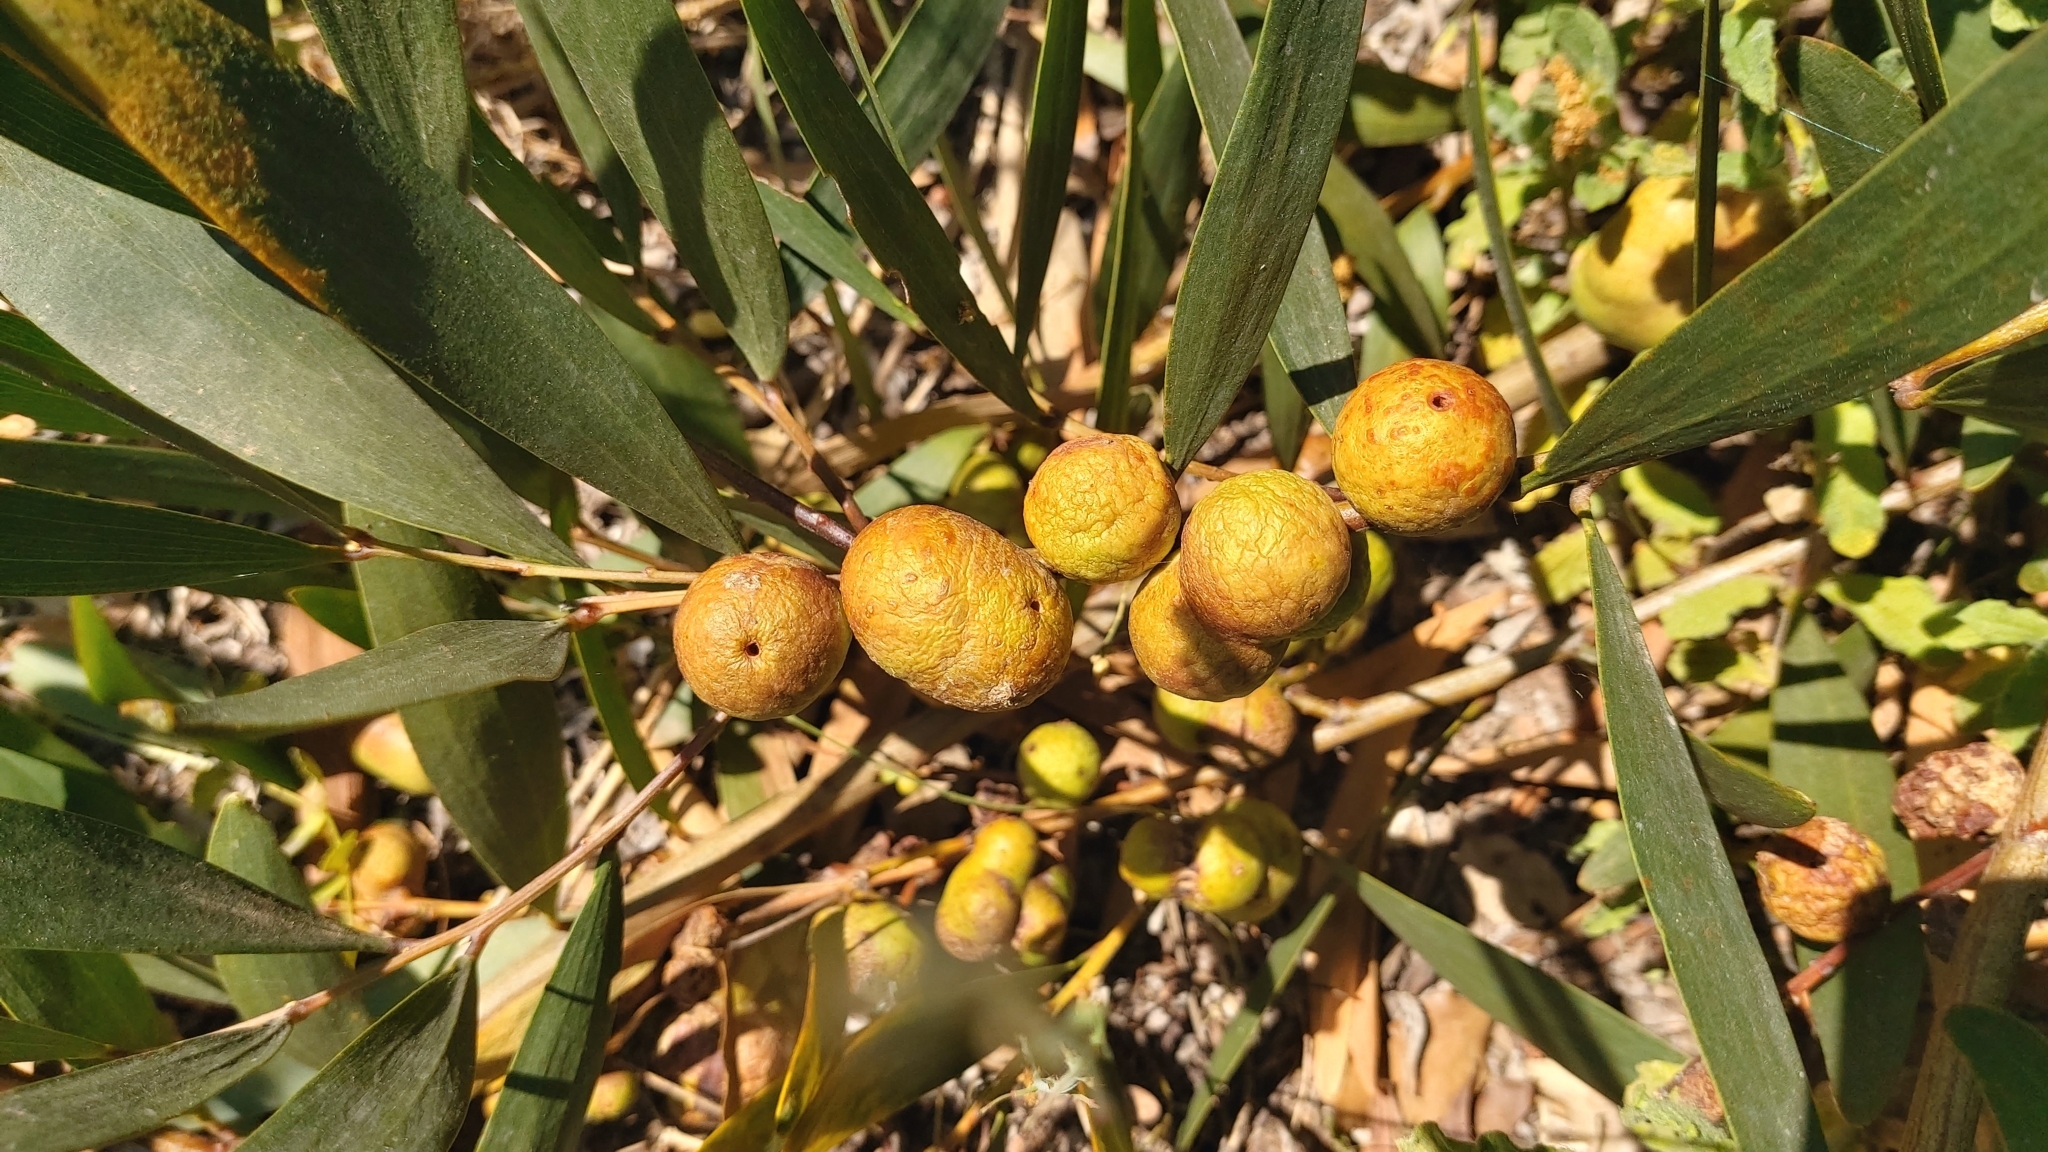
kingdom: Animalia
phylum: Arthropoda
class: Insecta
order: Hymenoptera
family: Pteromalidae
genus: Trichilogaster
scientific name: Trichilogaster acaciaelongifoliae
